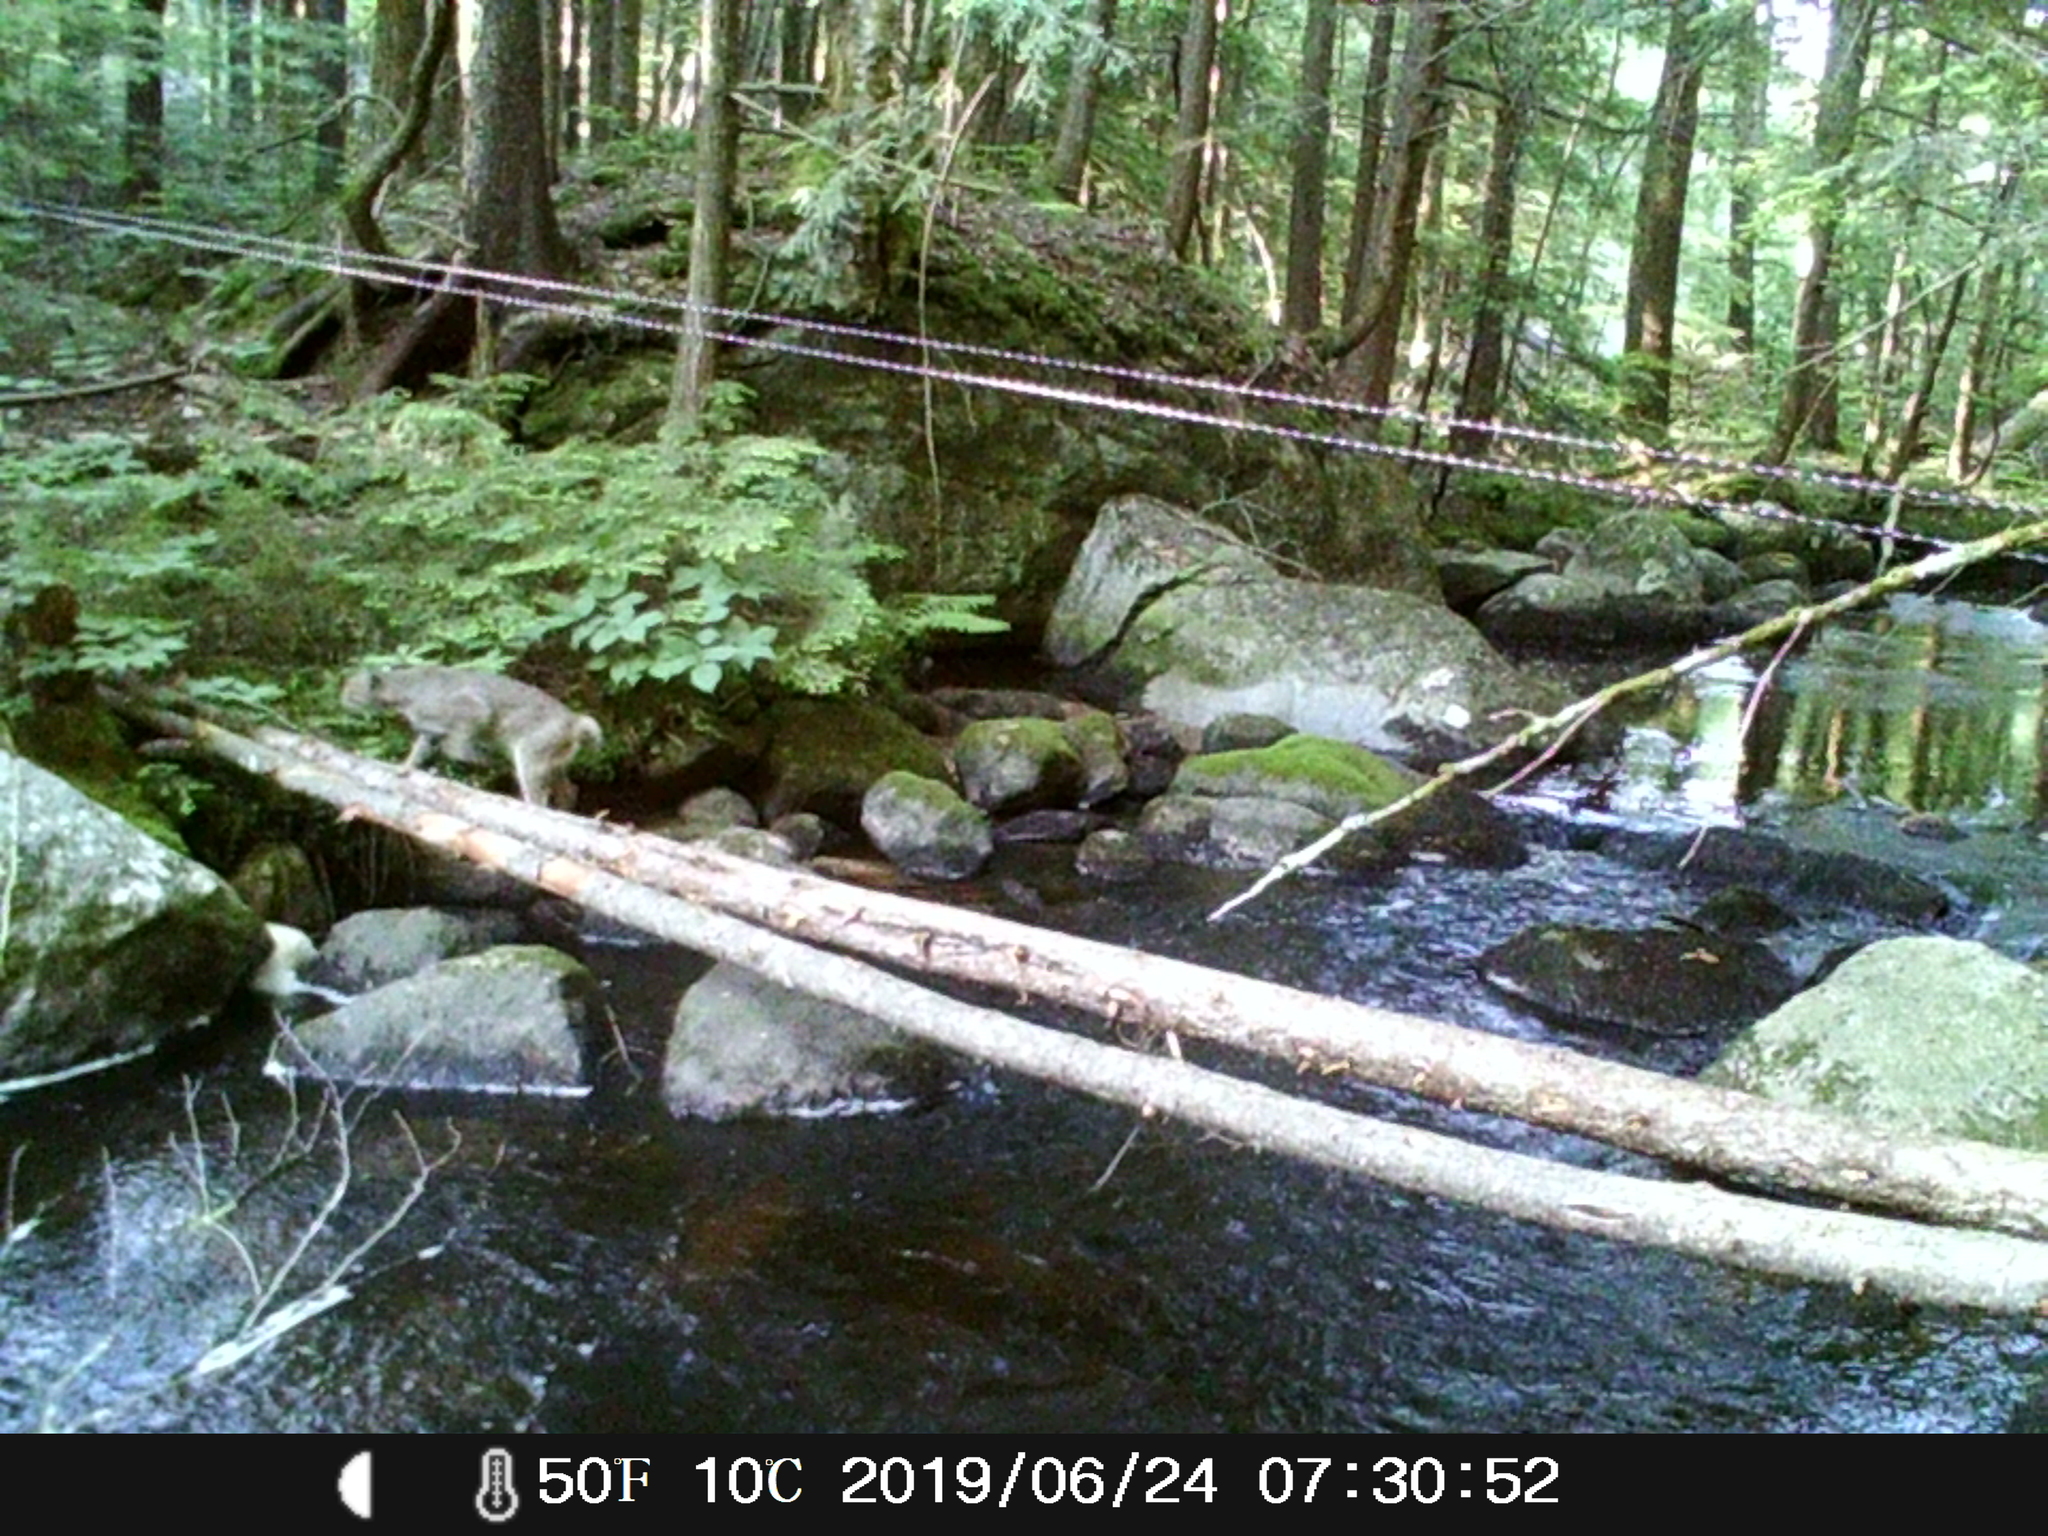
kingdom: Animalia
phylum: Chordata
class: Mammalia
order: Carnivora
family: Felidae
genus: Lynx
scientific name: Lynx rufus
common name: Bobcat
